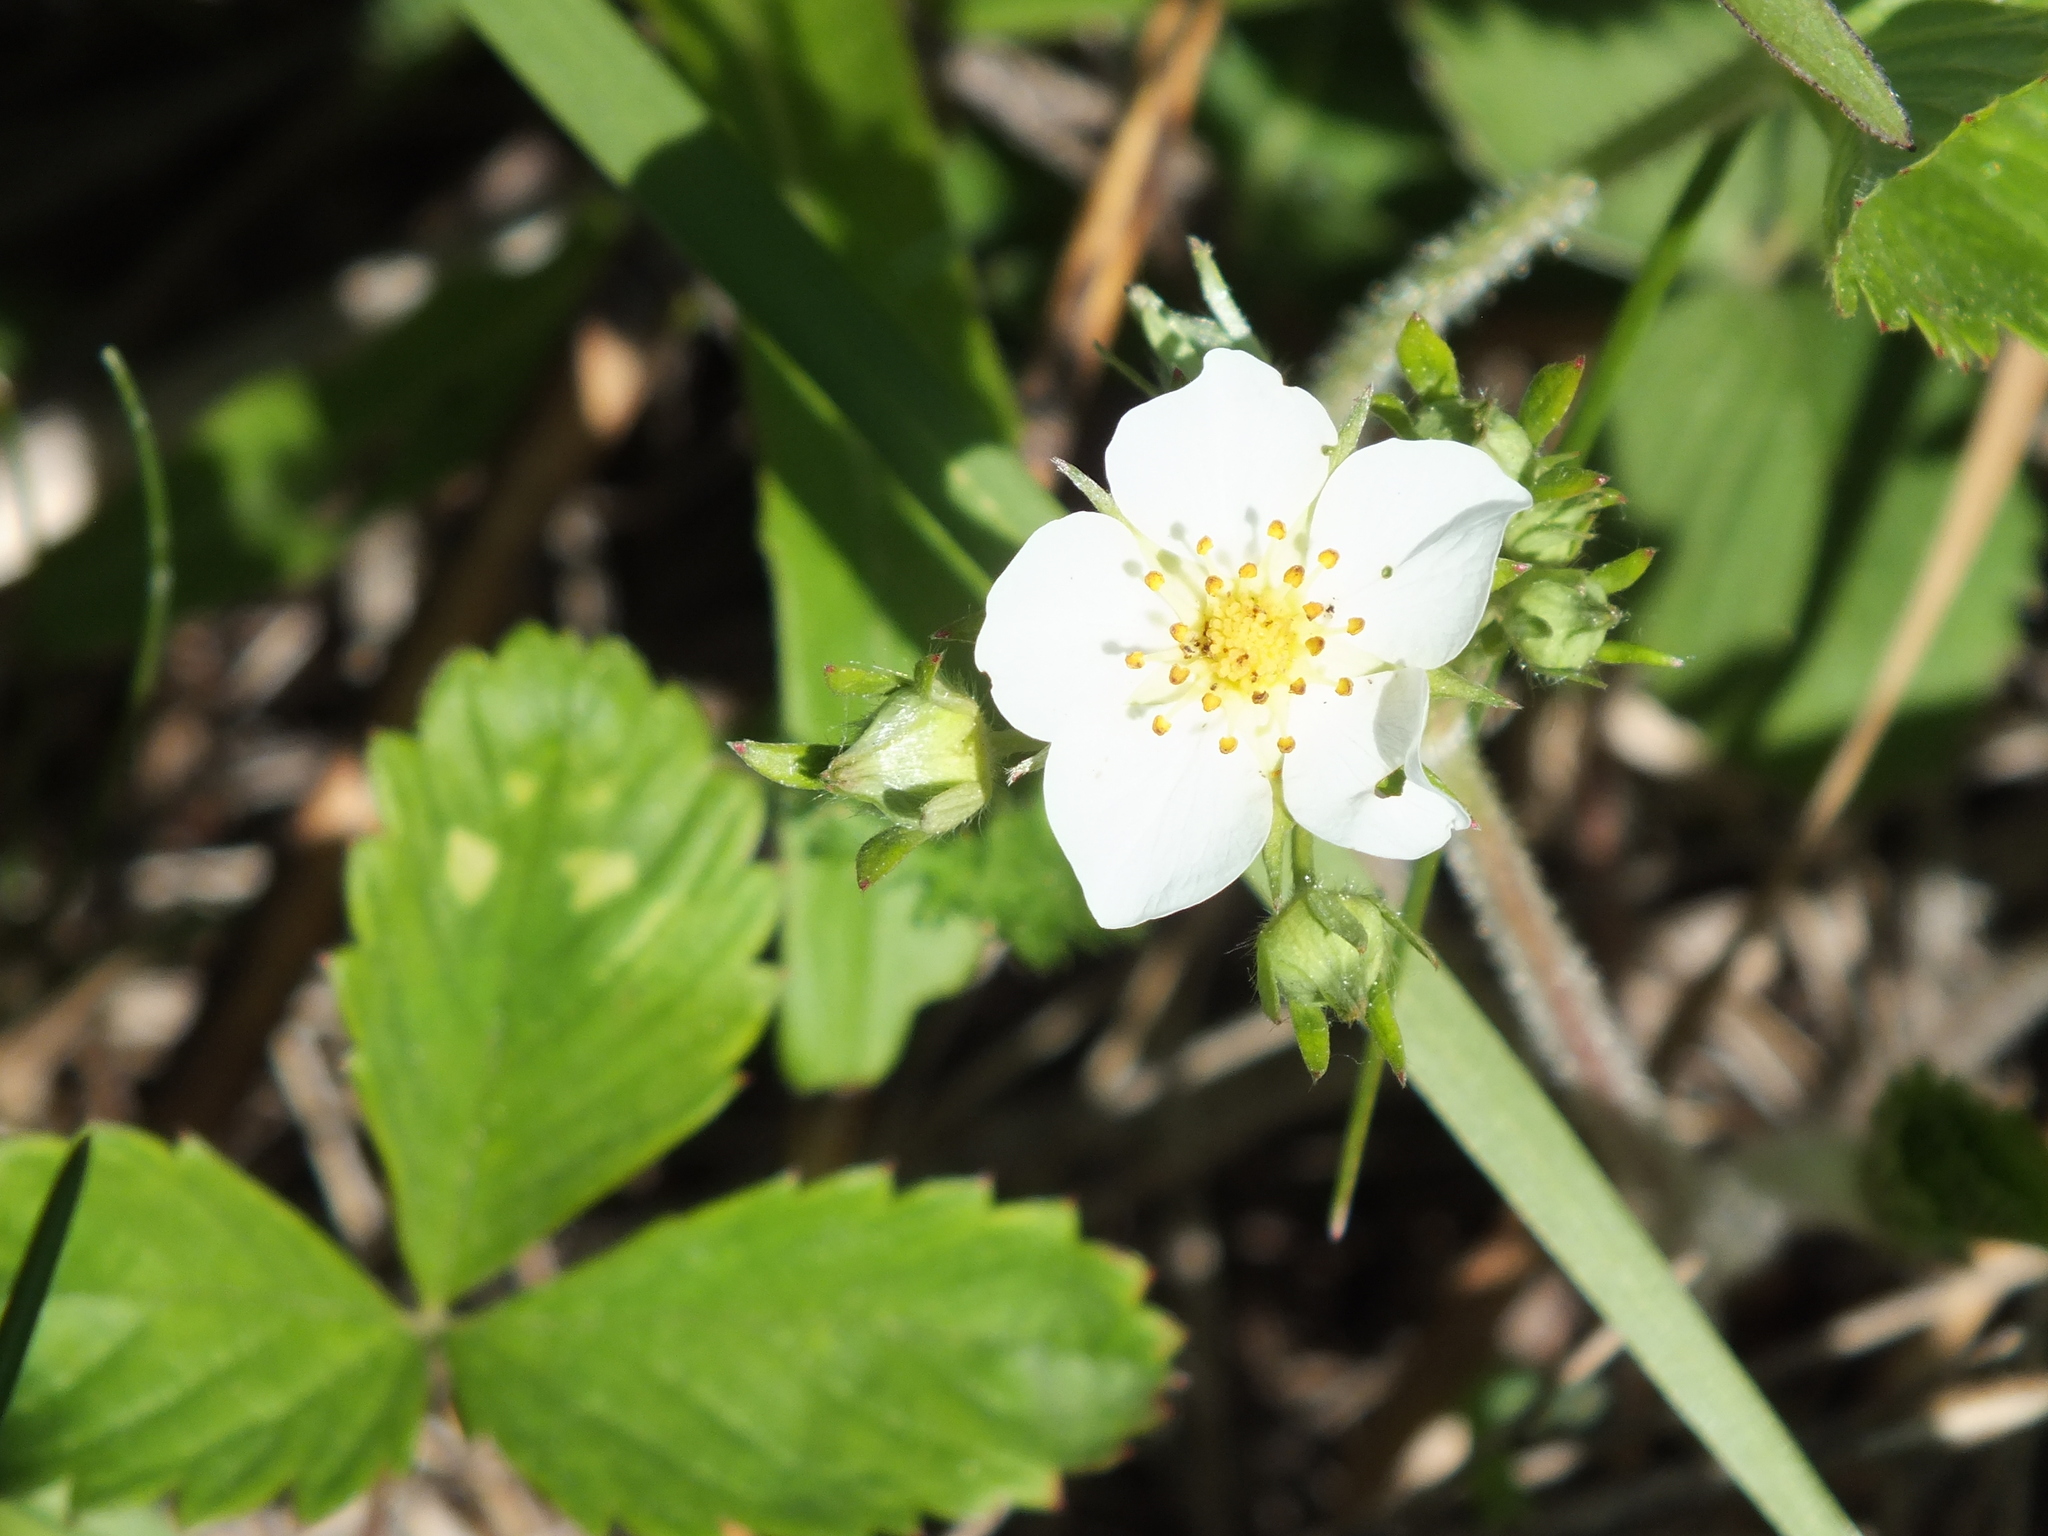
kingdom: Plantae
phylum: Tracheophyta
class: Magnoliopsida
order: Rosales
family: Rosaceae
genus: Fragaria
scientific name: Fragaria viridis
